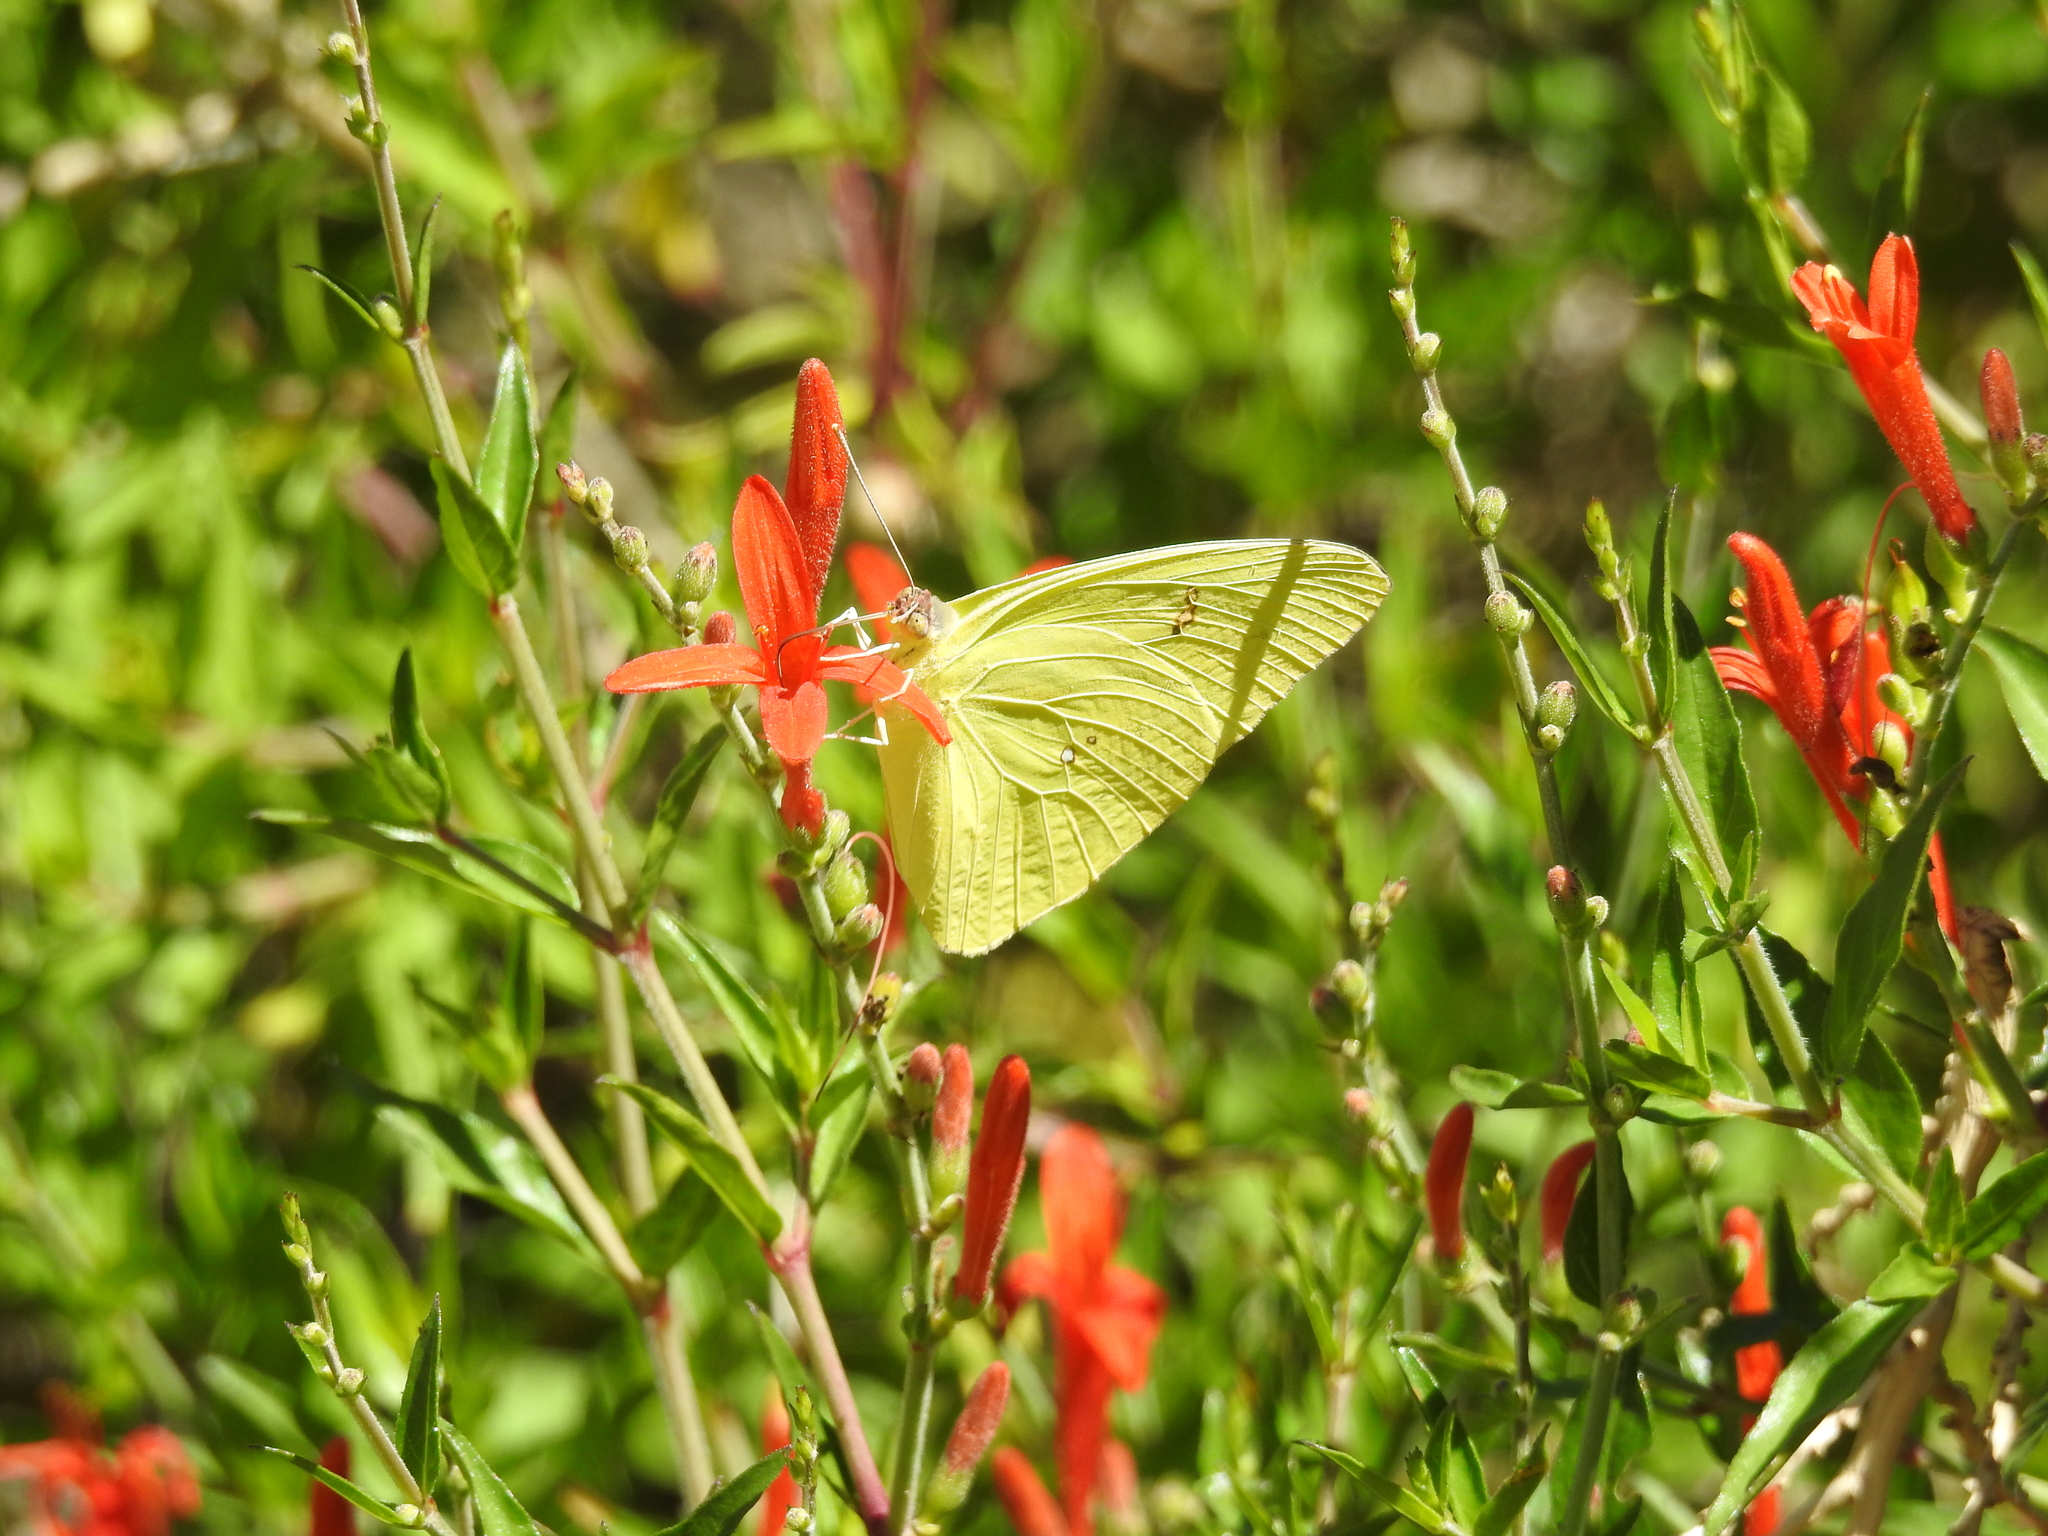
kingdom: Animalia
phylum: Arthropoda
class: Insecta
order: Lepidoptera
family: Pieridae
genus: Phoebis
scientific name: Phoebis sennae
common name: Cloudless sulphur
